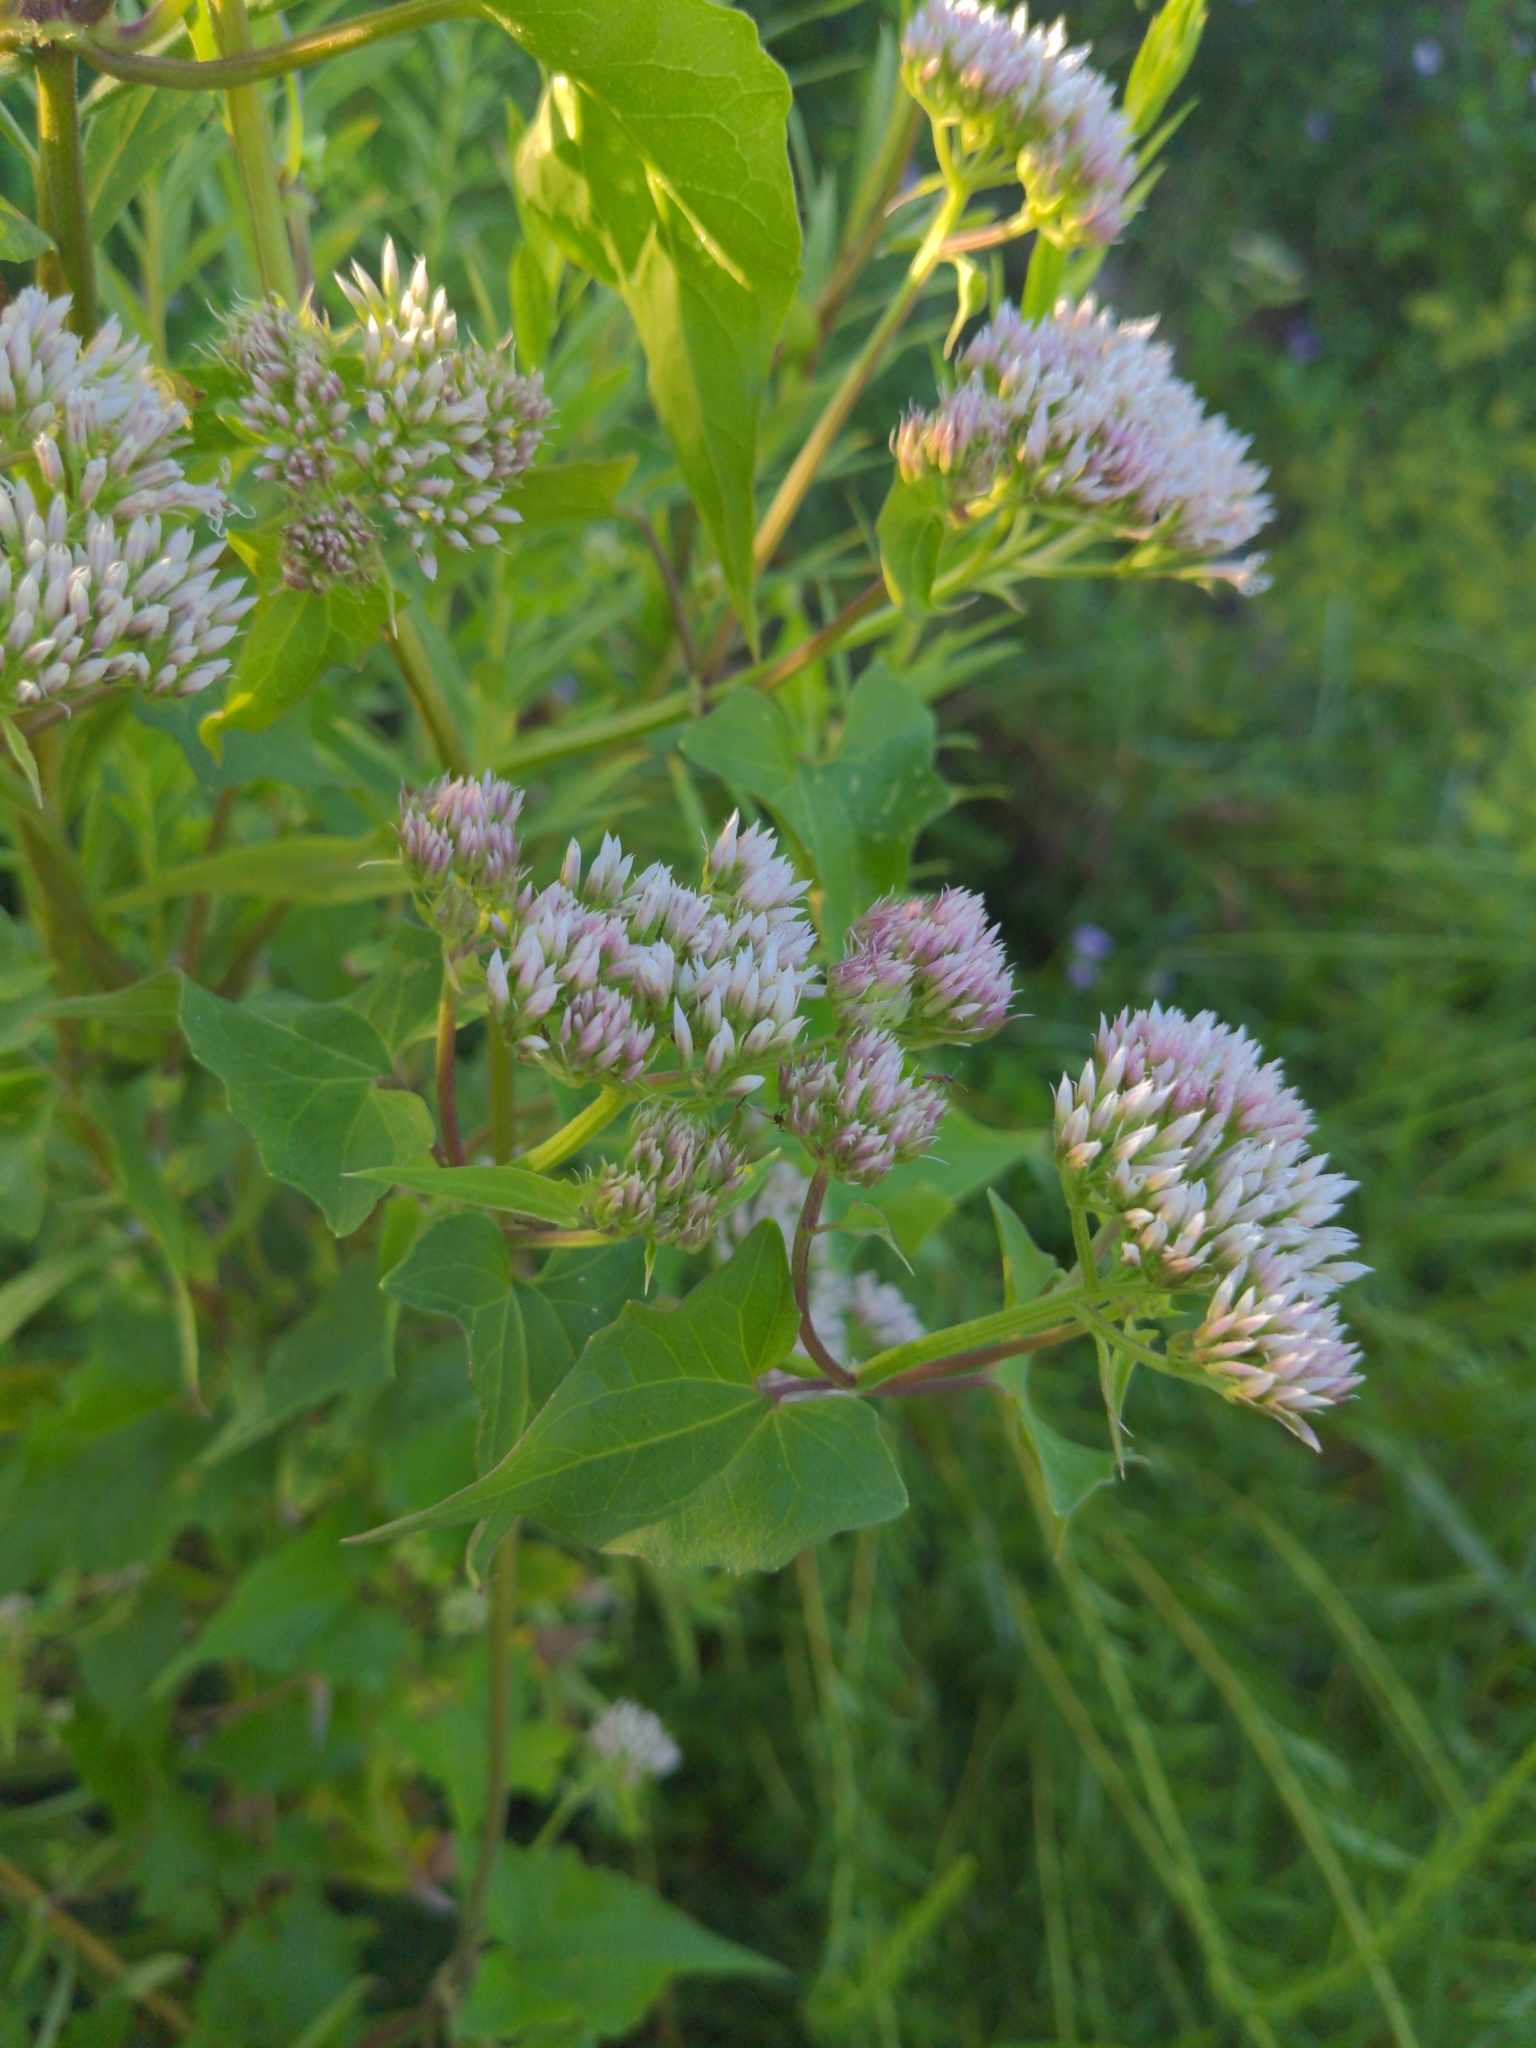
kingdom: Plantae
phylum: Tracheophyta
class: Magnoliopsida
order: Asterales
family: Asteraceae
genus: Mikania
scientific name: Mikania scandens
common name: Climbing hempvine
